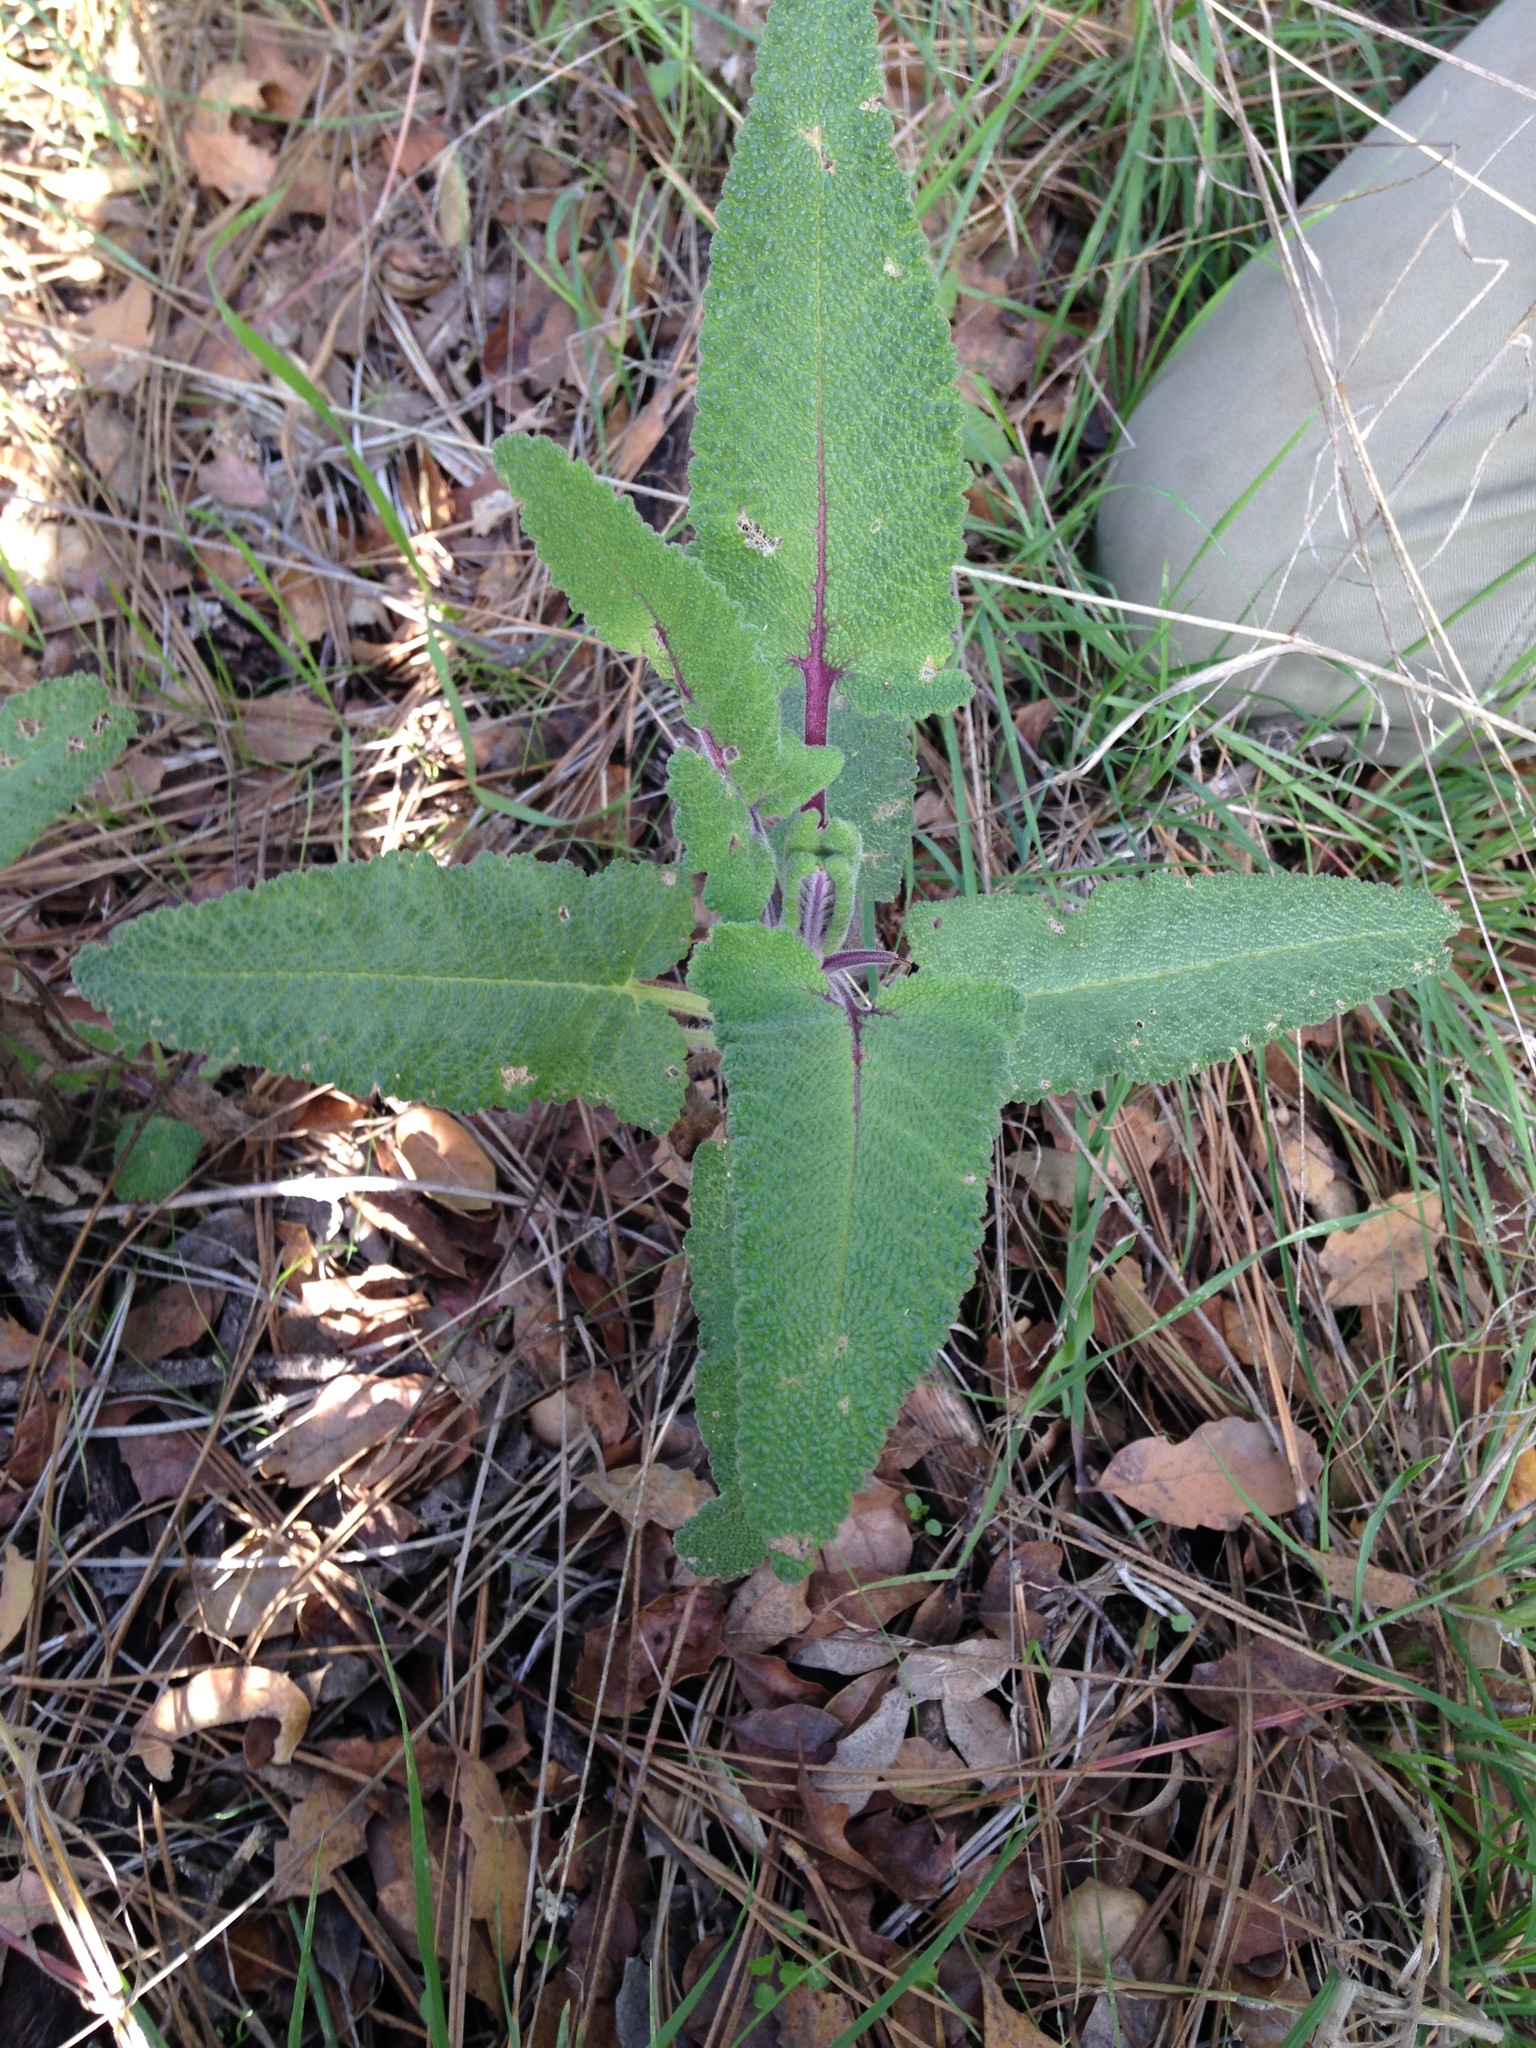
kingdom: Plantae
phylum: Tracheophyta
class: Magnoliopsida
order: Lamiales
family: Lamiaceae
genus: Salvia
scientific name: Salvia spathacea
